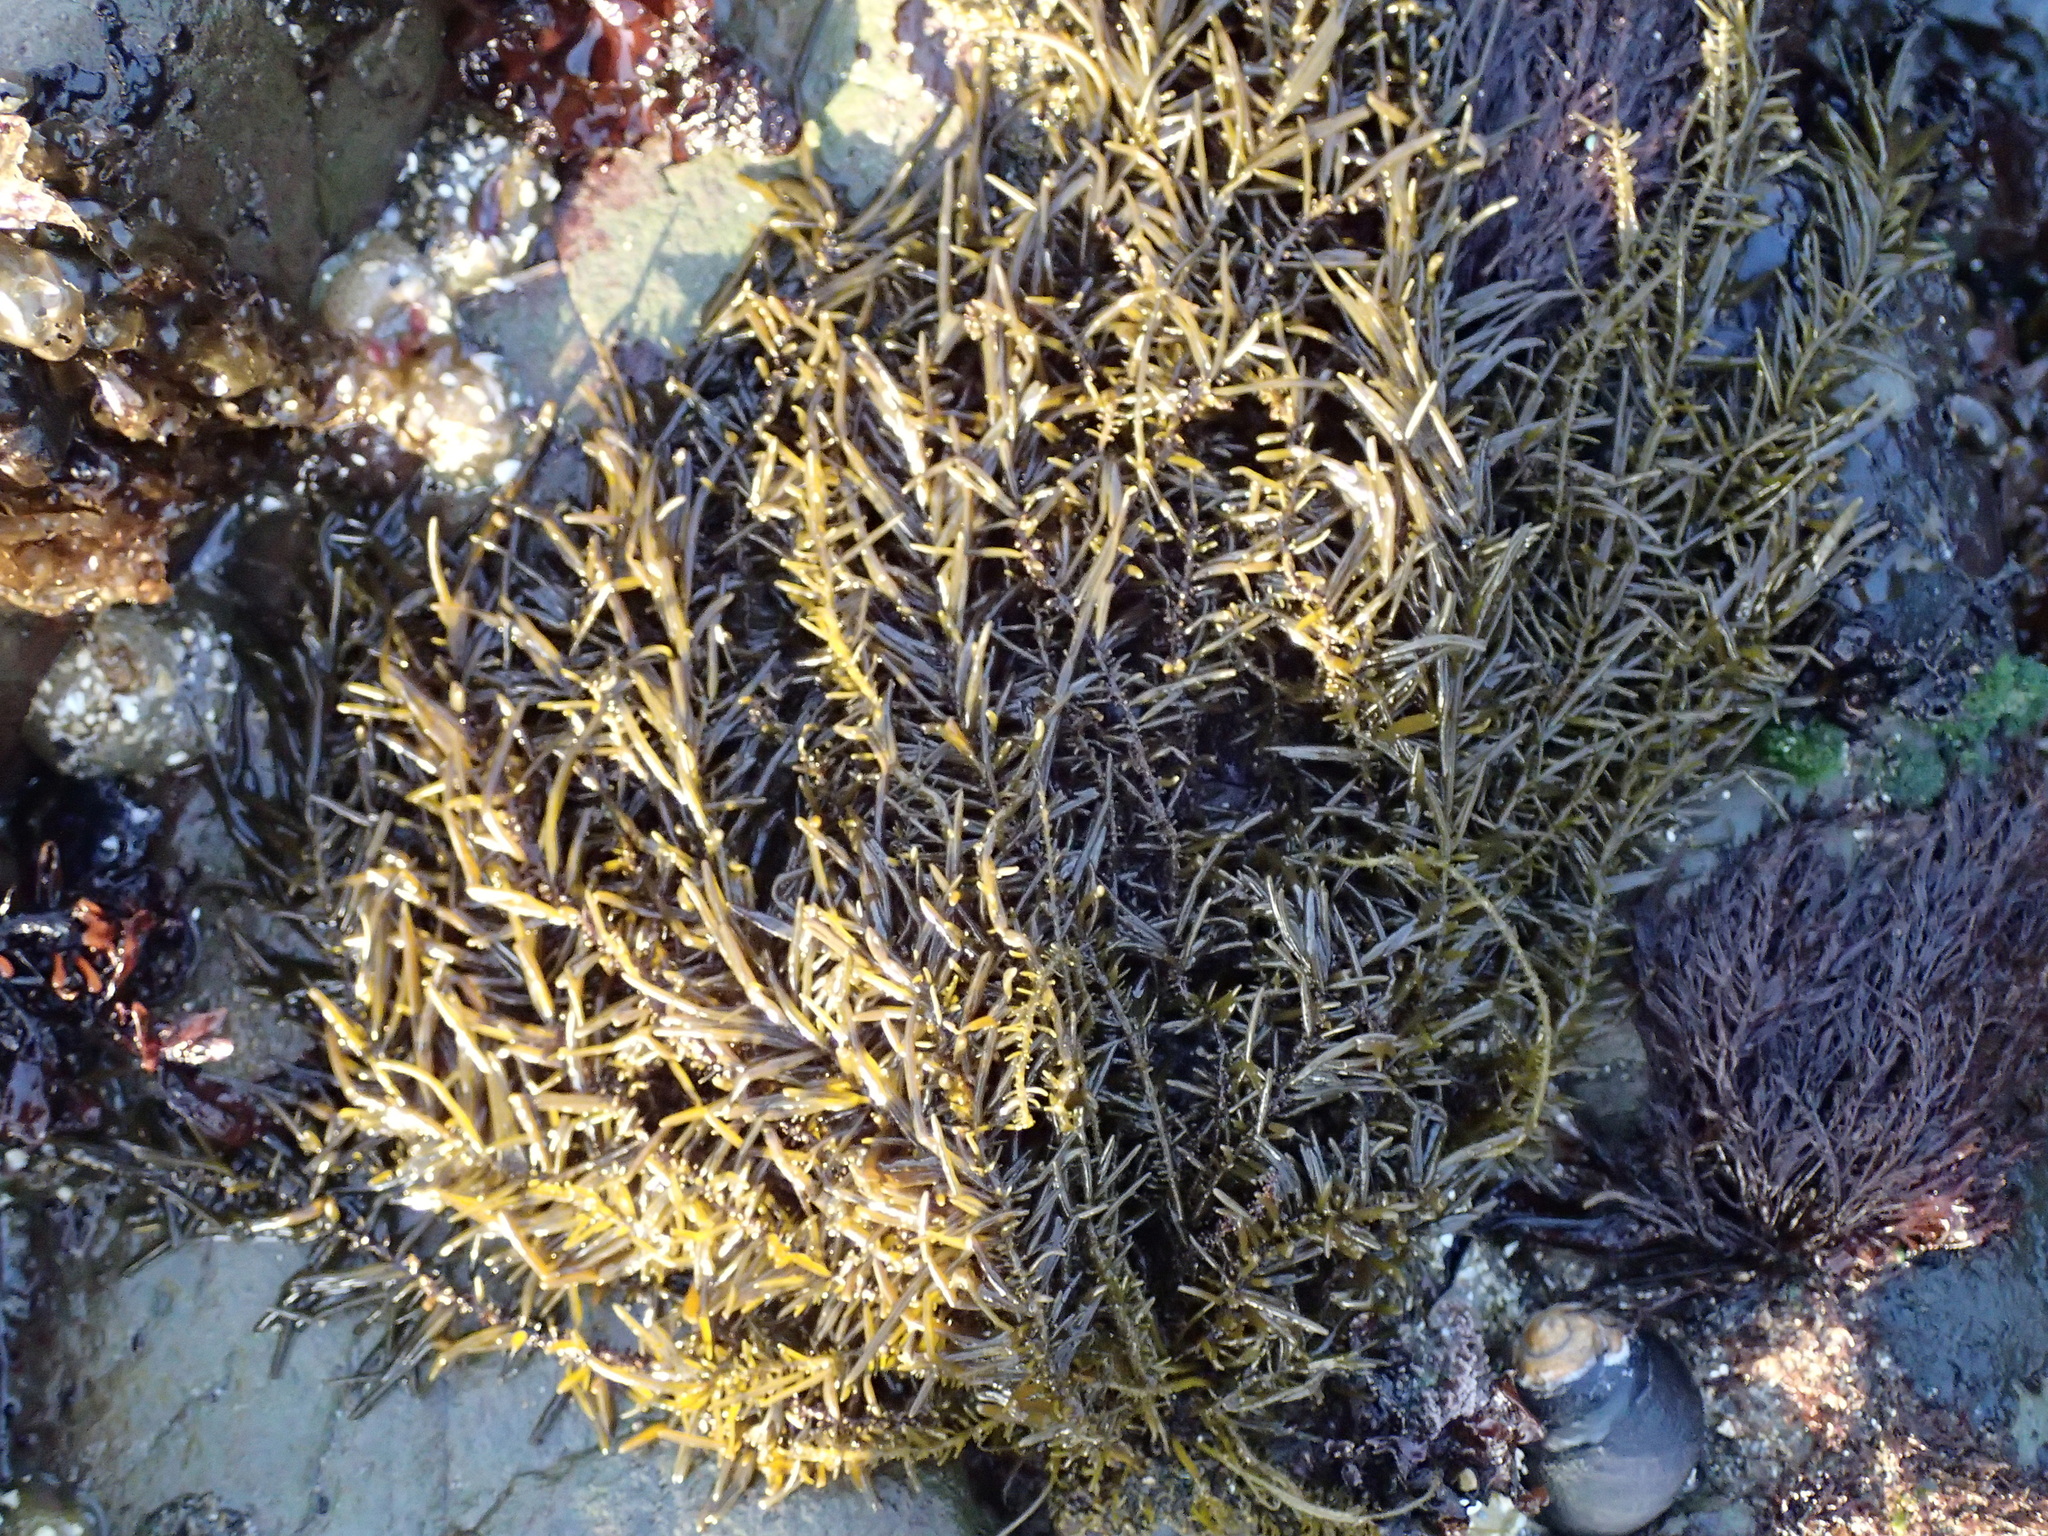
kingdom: Chromista
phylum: Ochrophyta
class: Phaeophyceae
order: Scytosiphonales
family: Scytosiphonaceae
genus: Analipus
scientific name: Analipus japonicus
